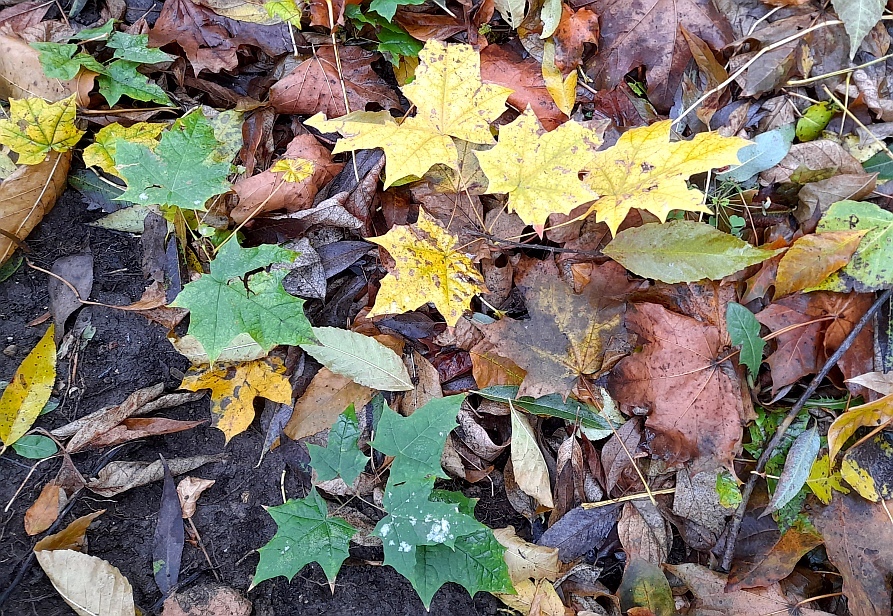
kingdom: Plantae
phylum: Tracheophyta
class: Magnoliopsida
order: Sapindales
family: Sapindaceae
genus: Acer
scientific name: Acer platanoides
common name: Norway maple
